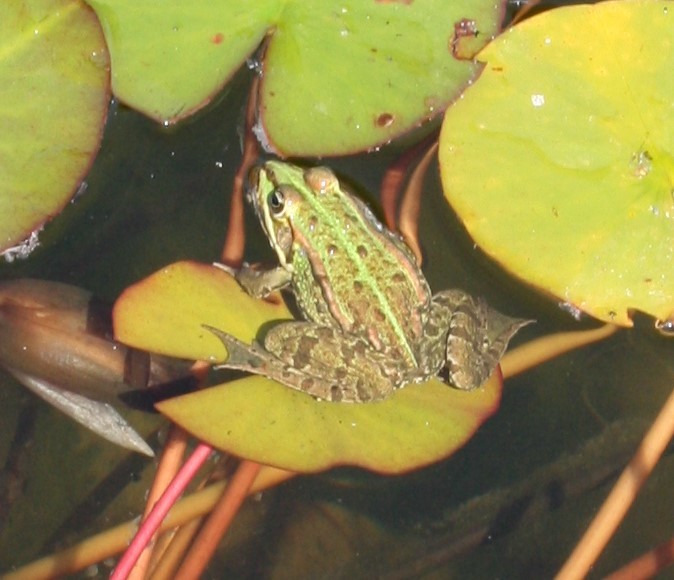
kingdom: Animalia
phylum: Chordata
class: Amphibia
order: Anura
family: Ranidae
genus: Pelophylax
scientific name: Pelophylax
